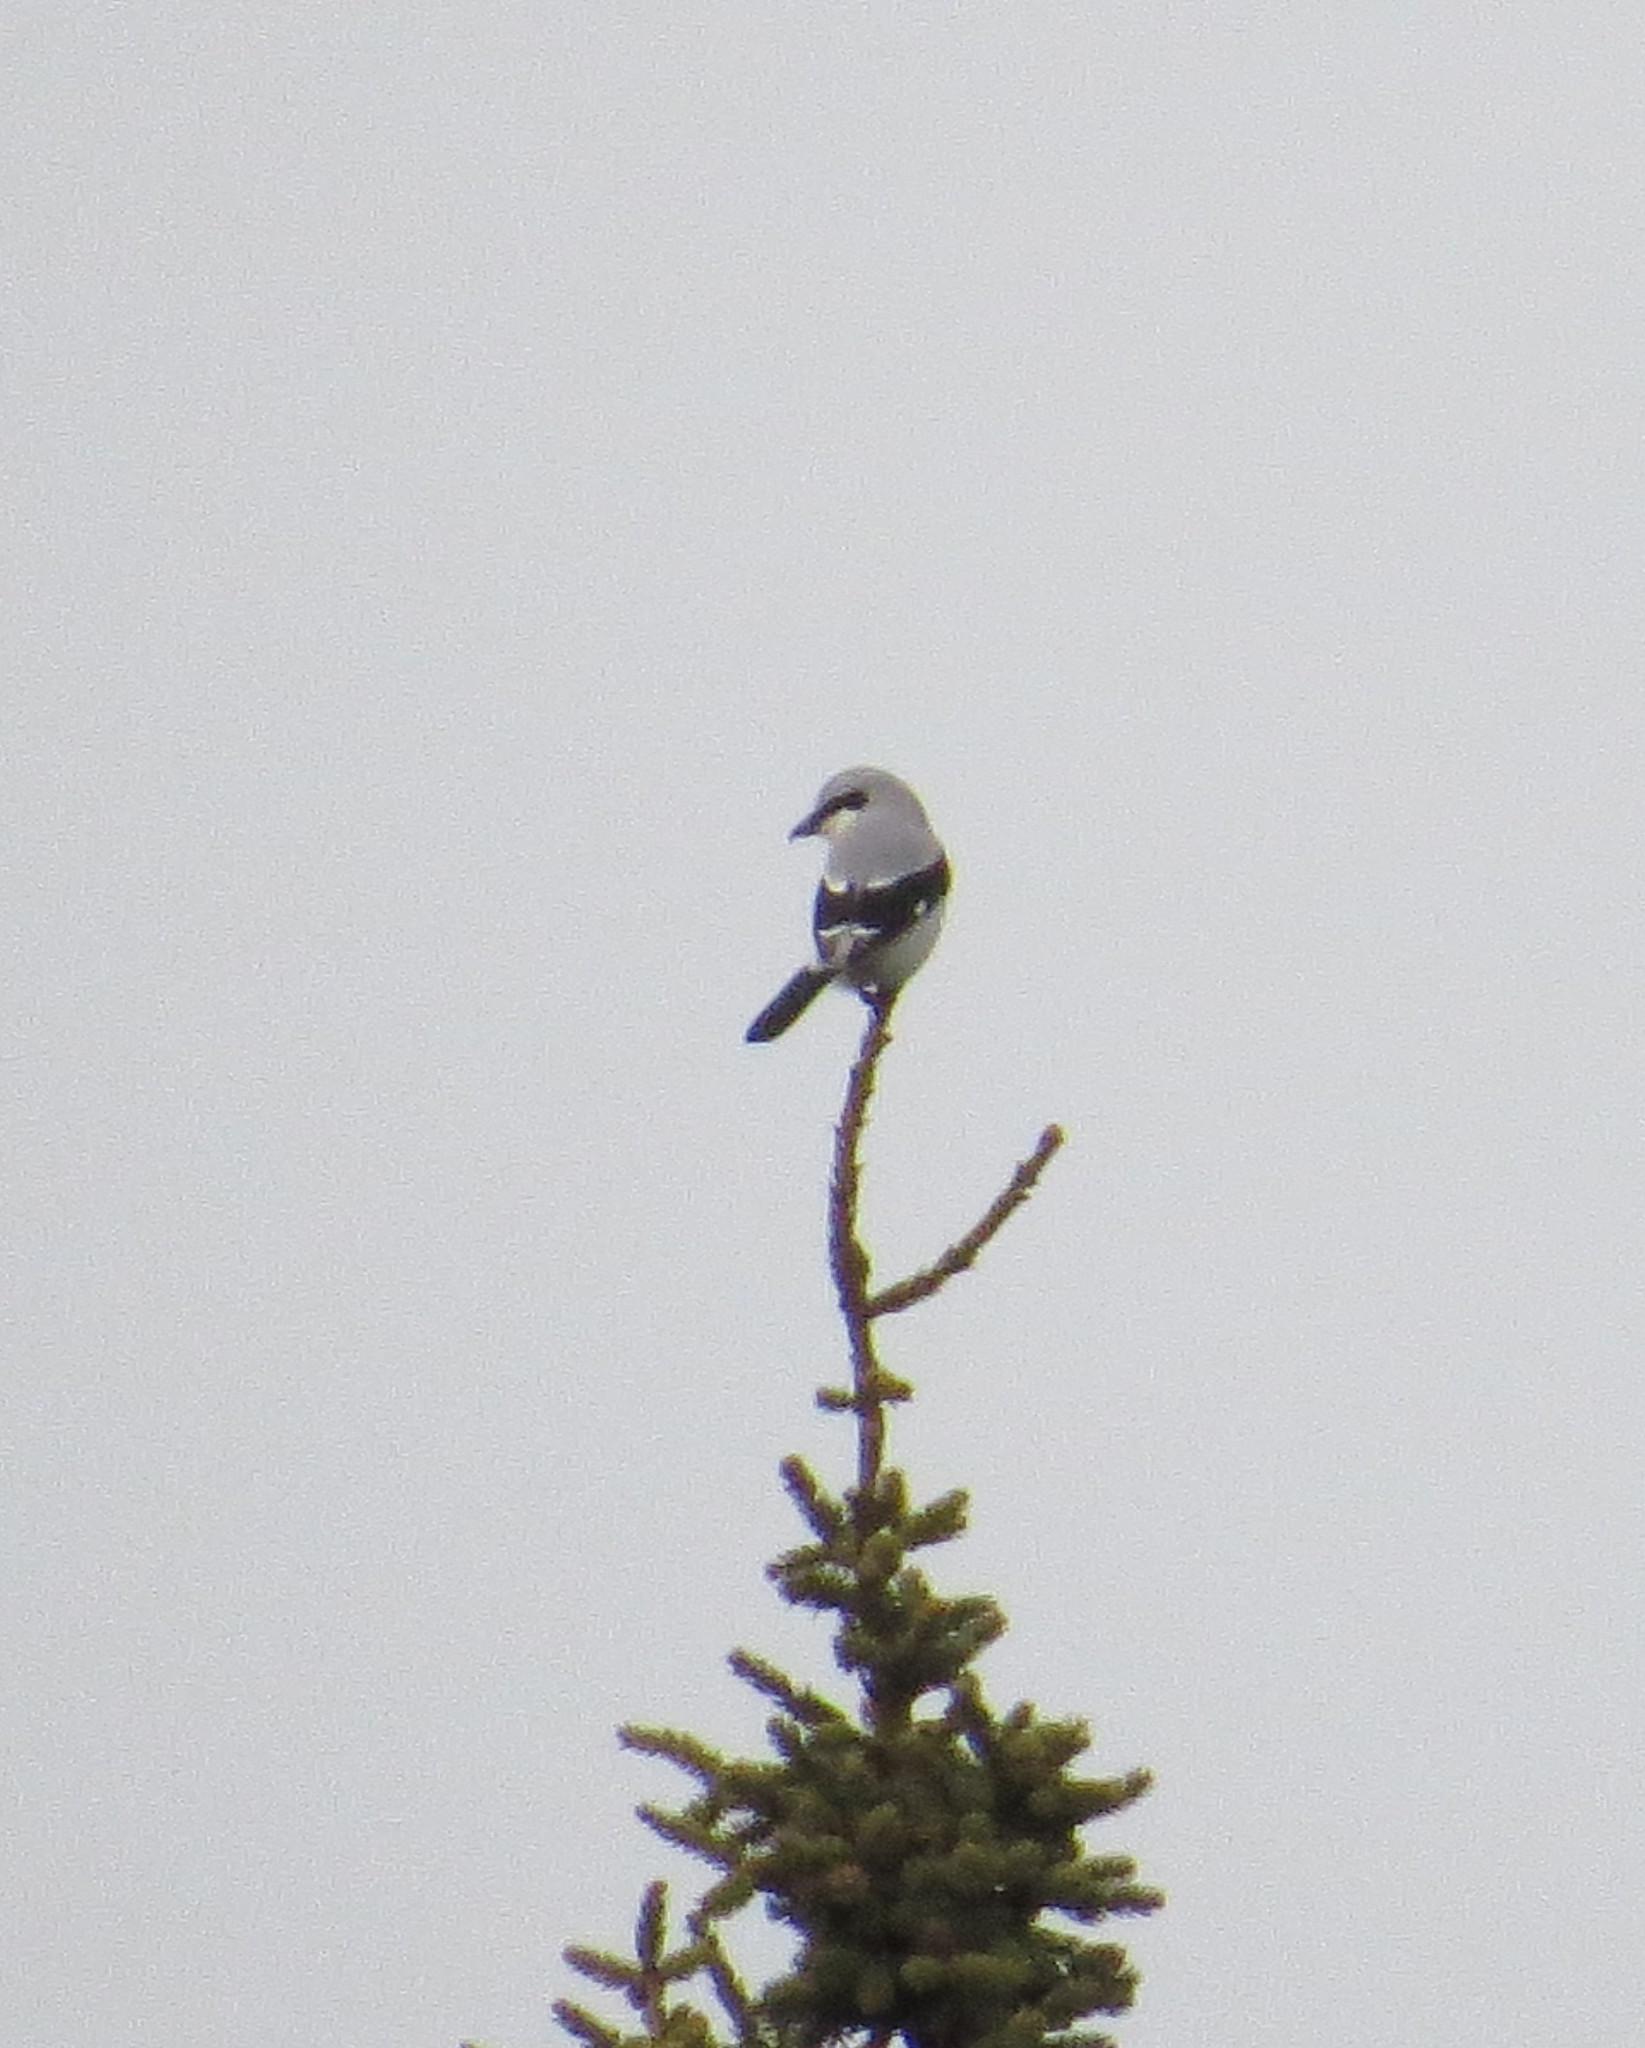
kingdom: Animalia
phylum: Chordata
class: Aves
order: Passeriformes
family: Laniidae
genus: Lanius
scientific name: Lanius borealis
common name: Northern shrike
